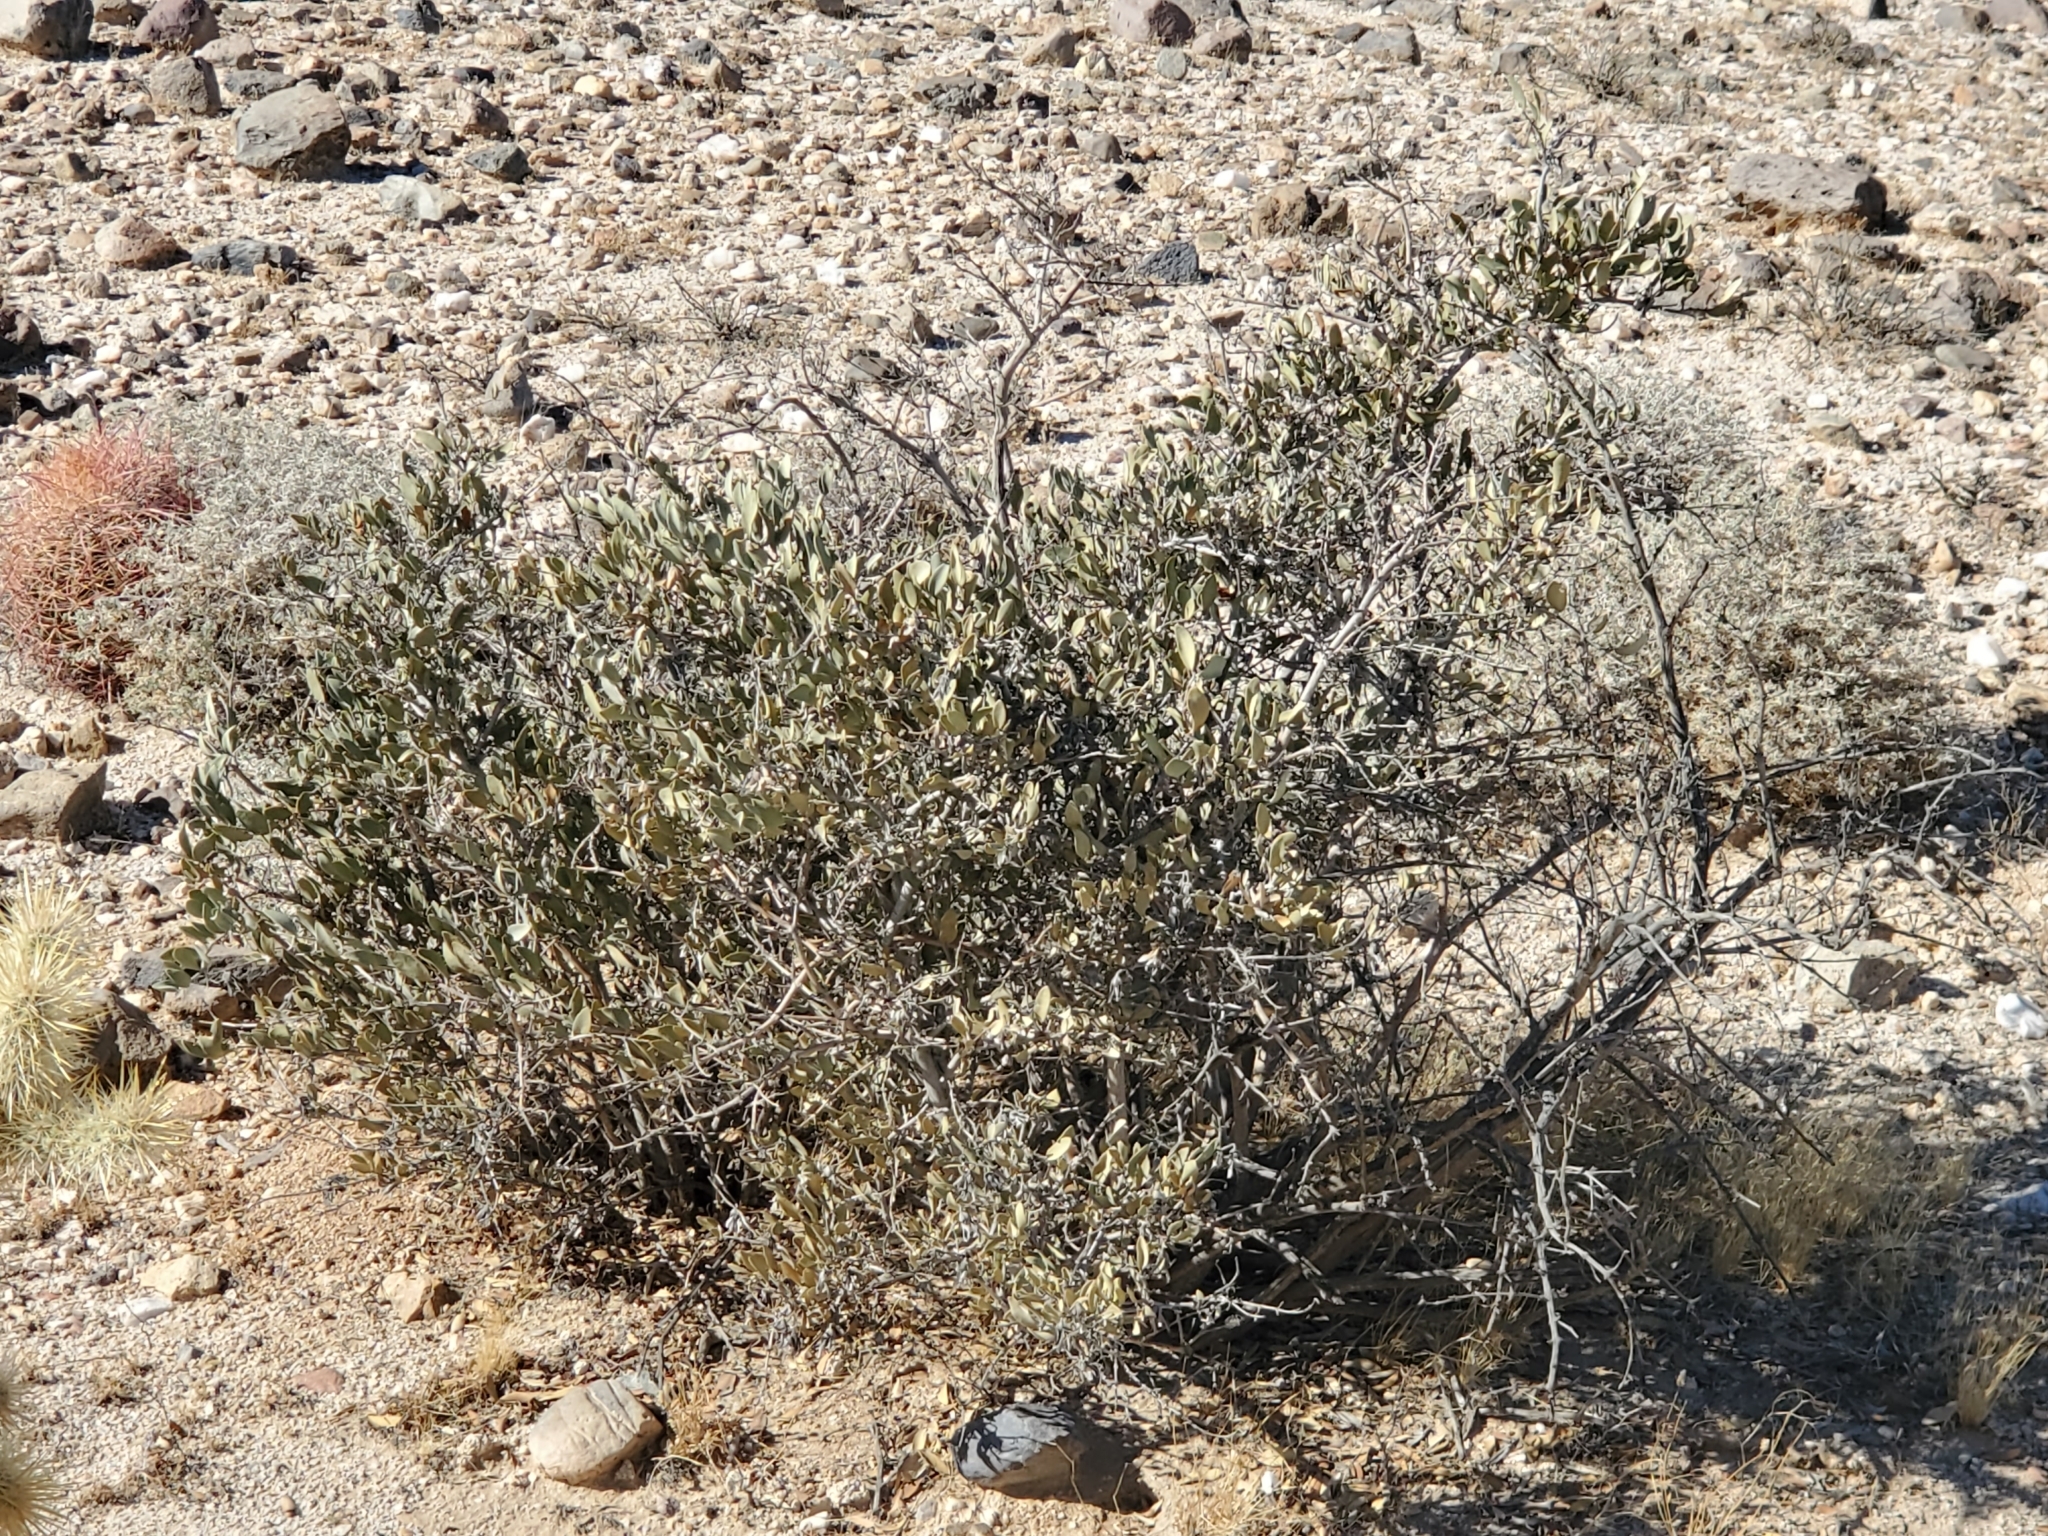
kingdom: Plantae
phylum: Tracheophyta
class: Magnoliopsida
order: Caryophyllales
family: Simmondsiaceae
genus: Simmondsia
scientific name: Simmondsia chinensis
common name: Jojoba
